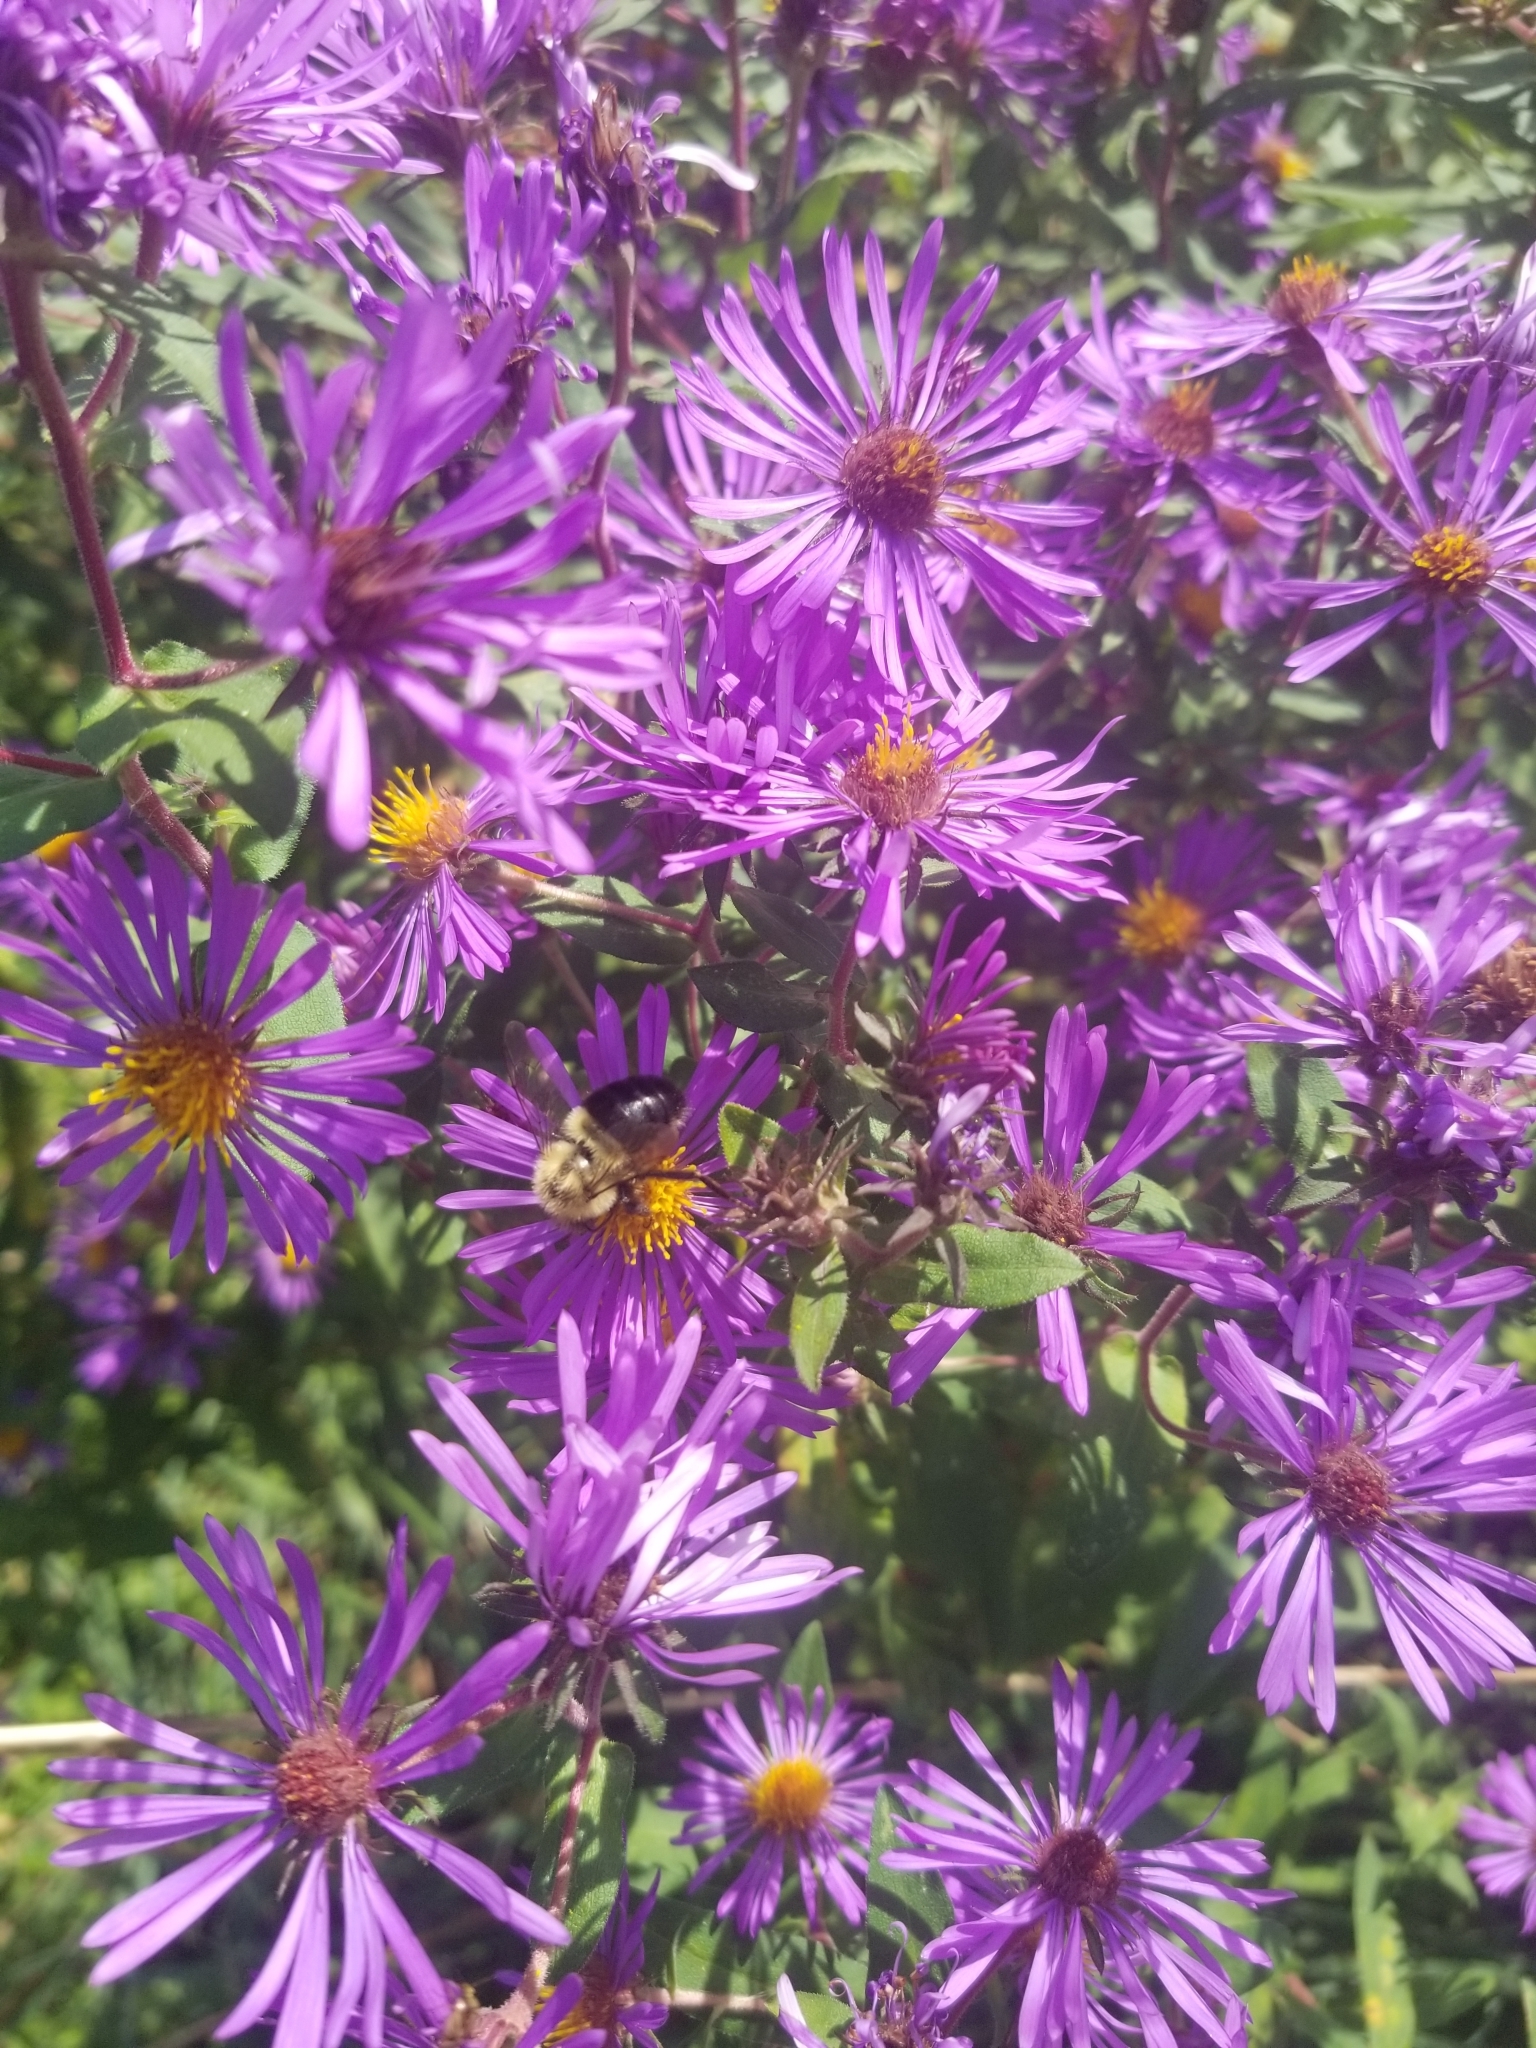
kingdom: Animalia
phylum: Arthropoda
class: Insecta
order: Hymenoptera
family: Apidae
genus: Bombus
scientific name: Bombus impatiens
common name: Common eastern bumble bee
